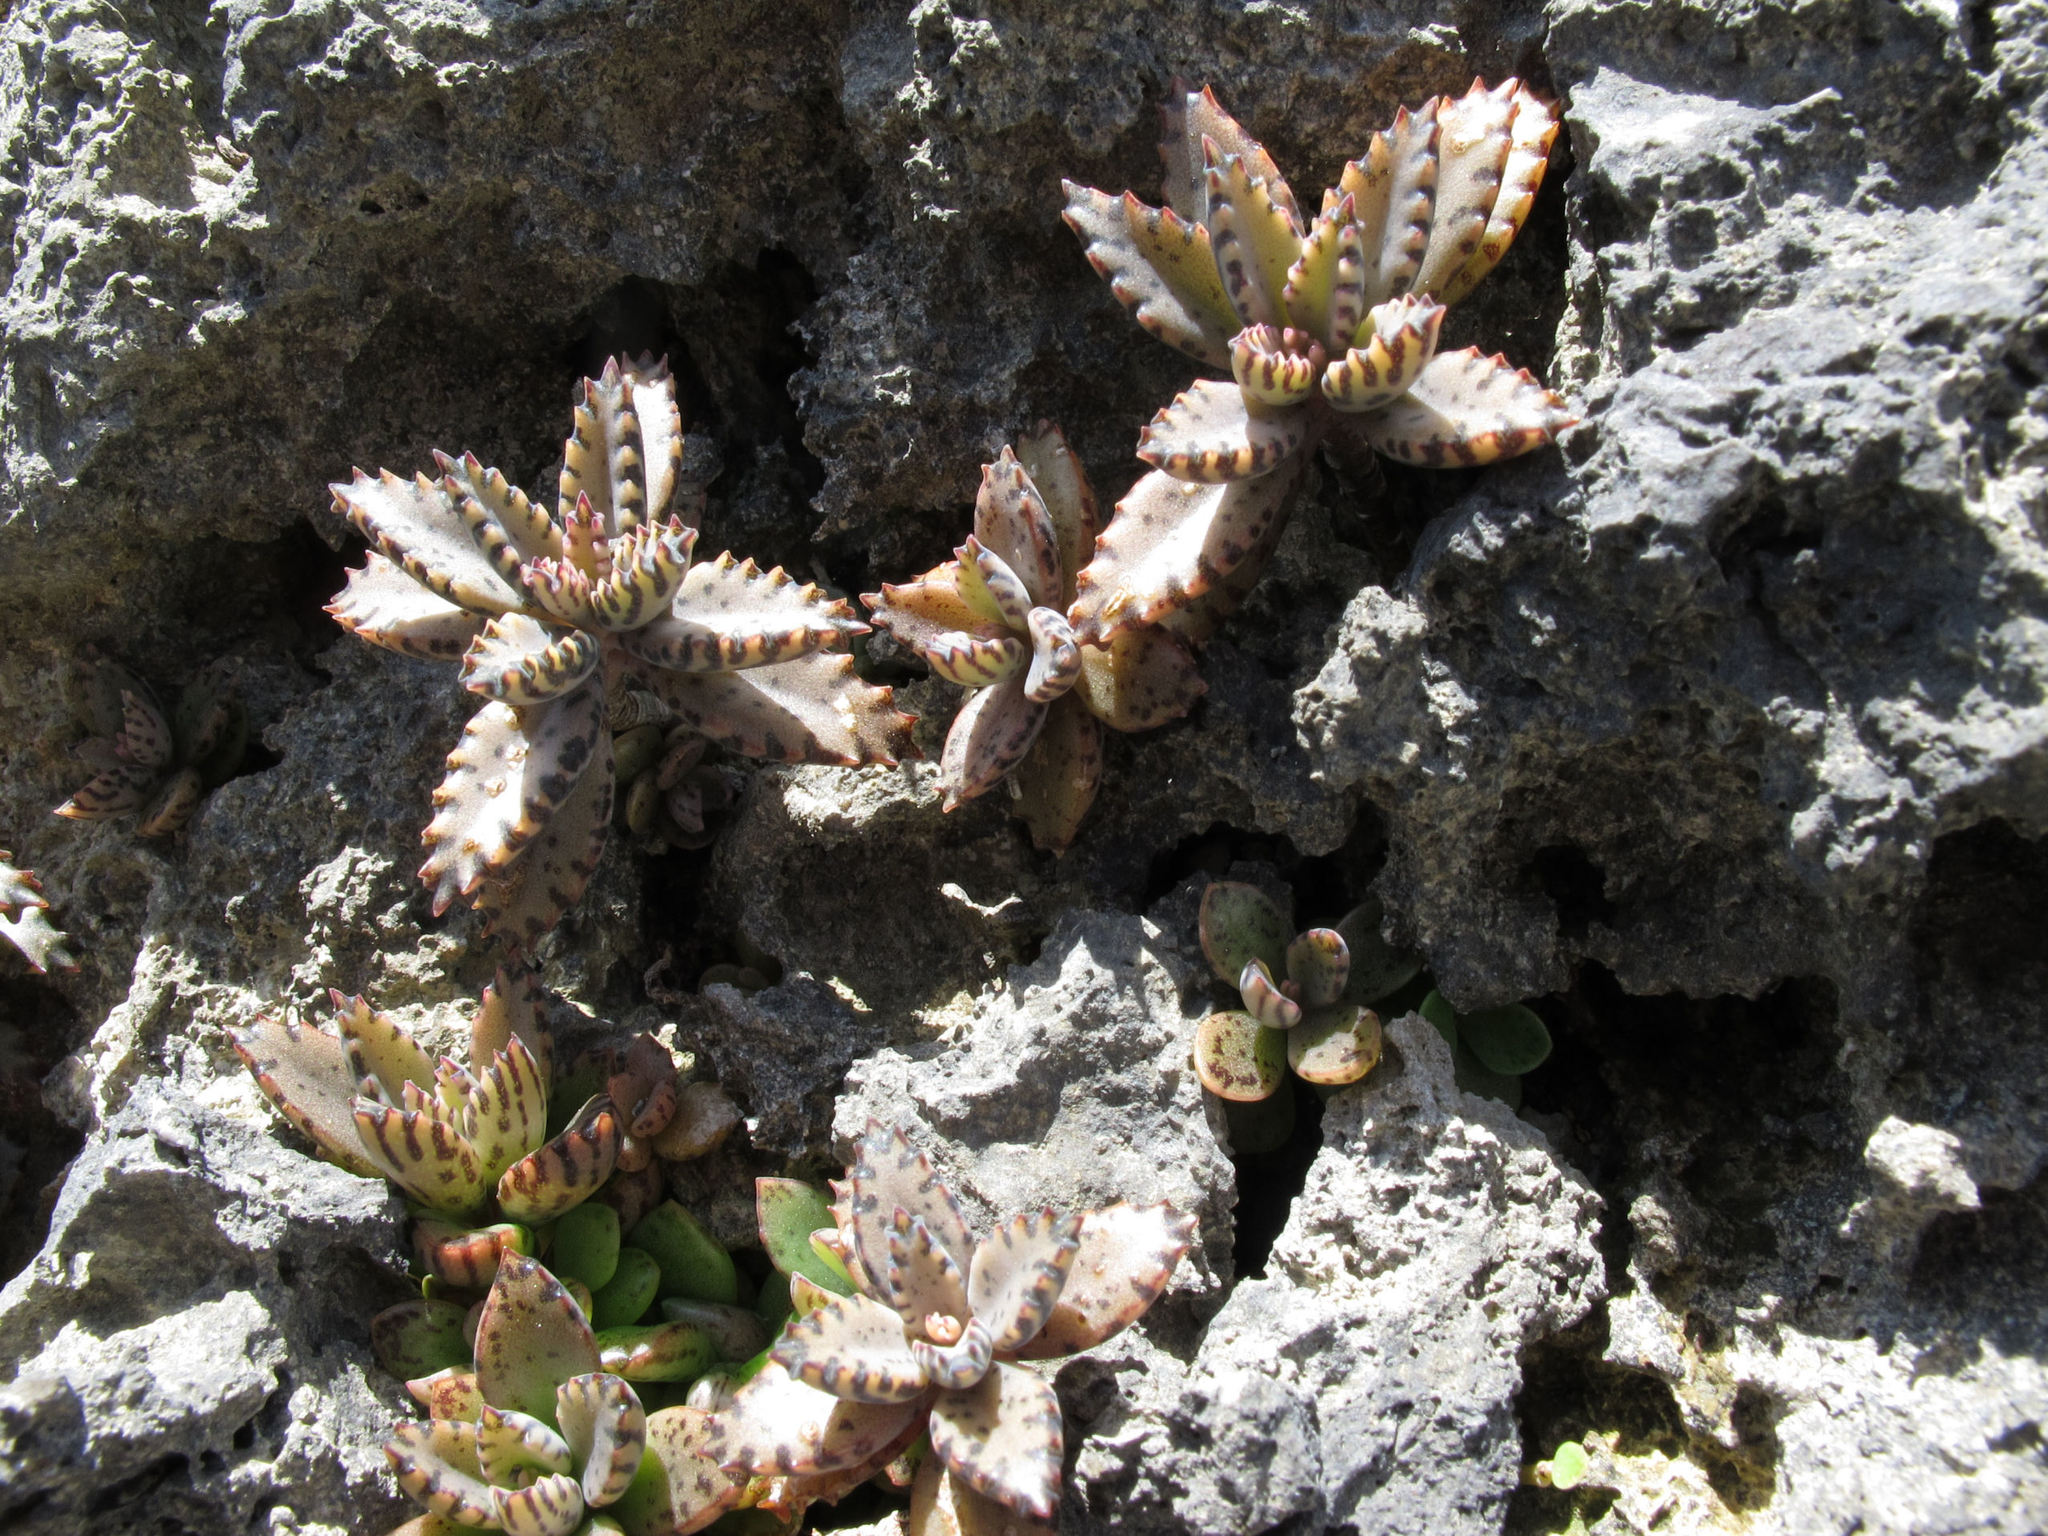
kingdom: Plantae
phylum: Tracheophyta
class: Magnoliopsida
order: Saxifragales
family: Crassulaceae
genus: Kalanchoe
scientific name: Kalanchoe houghtonii
